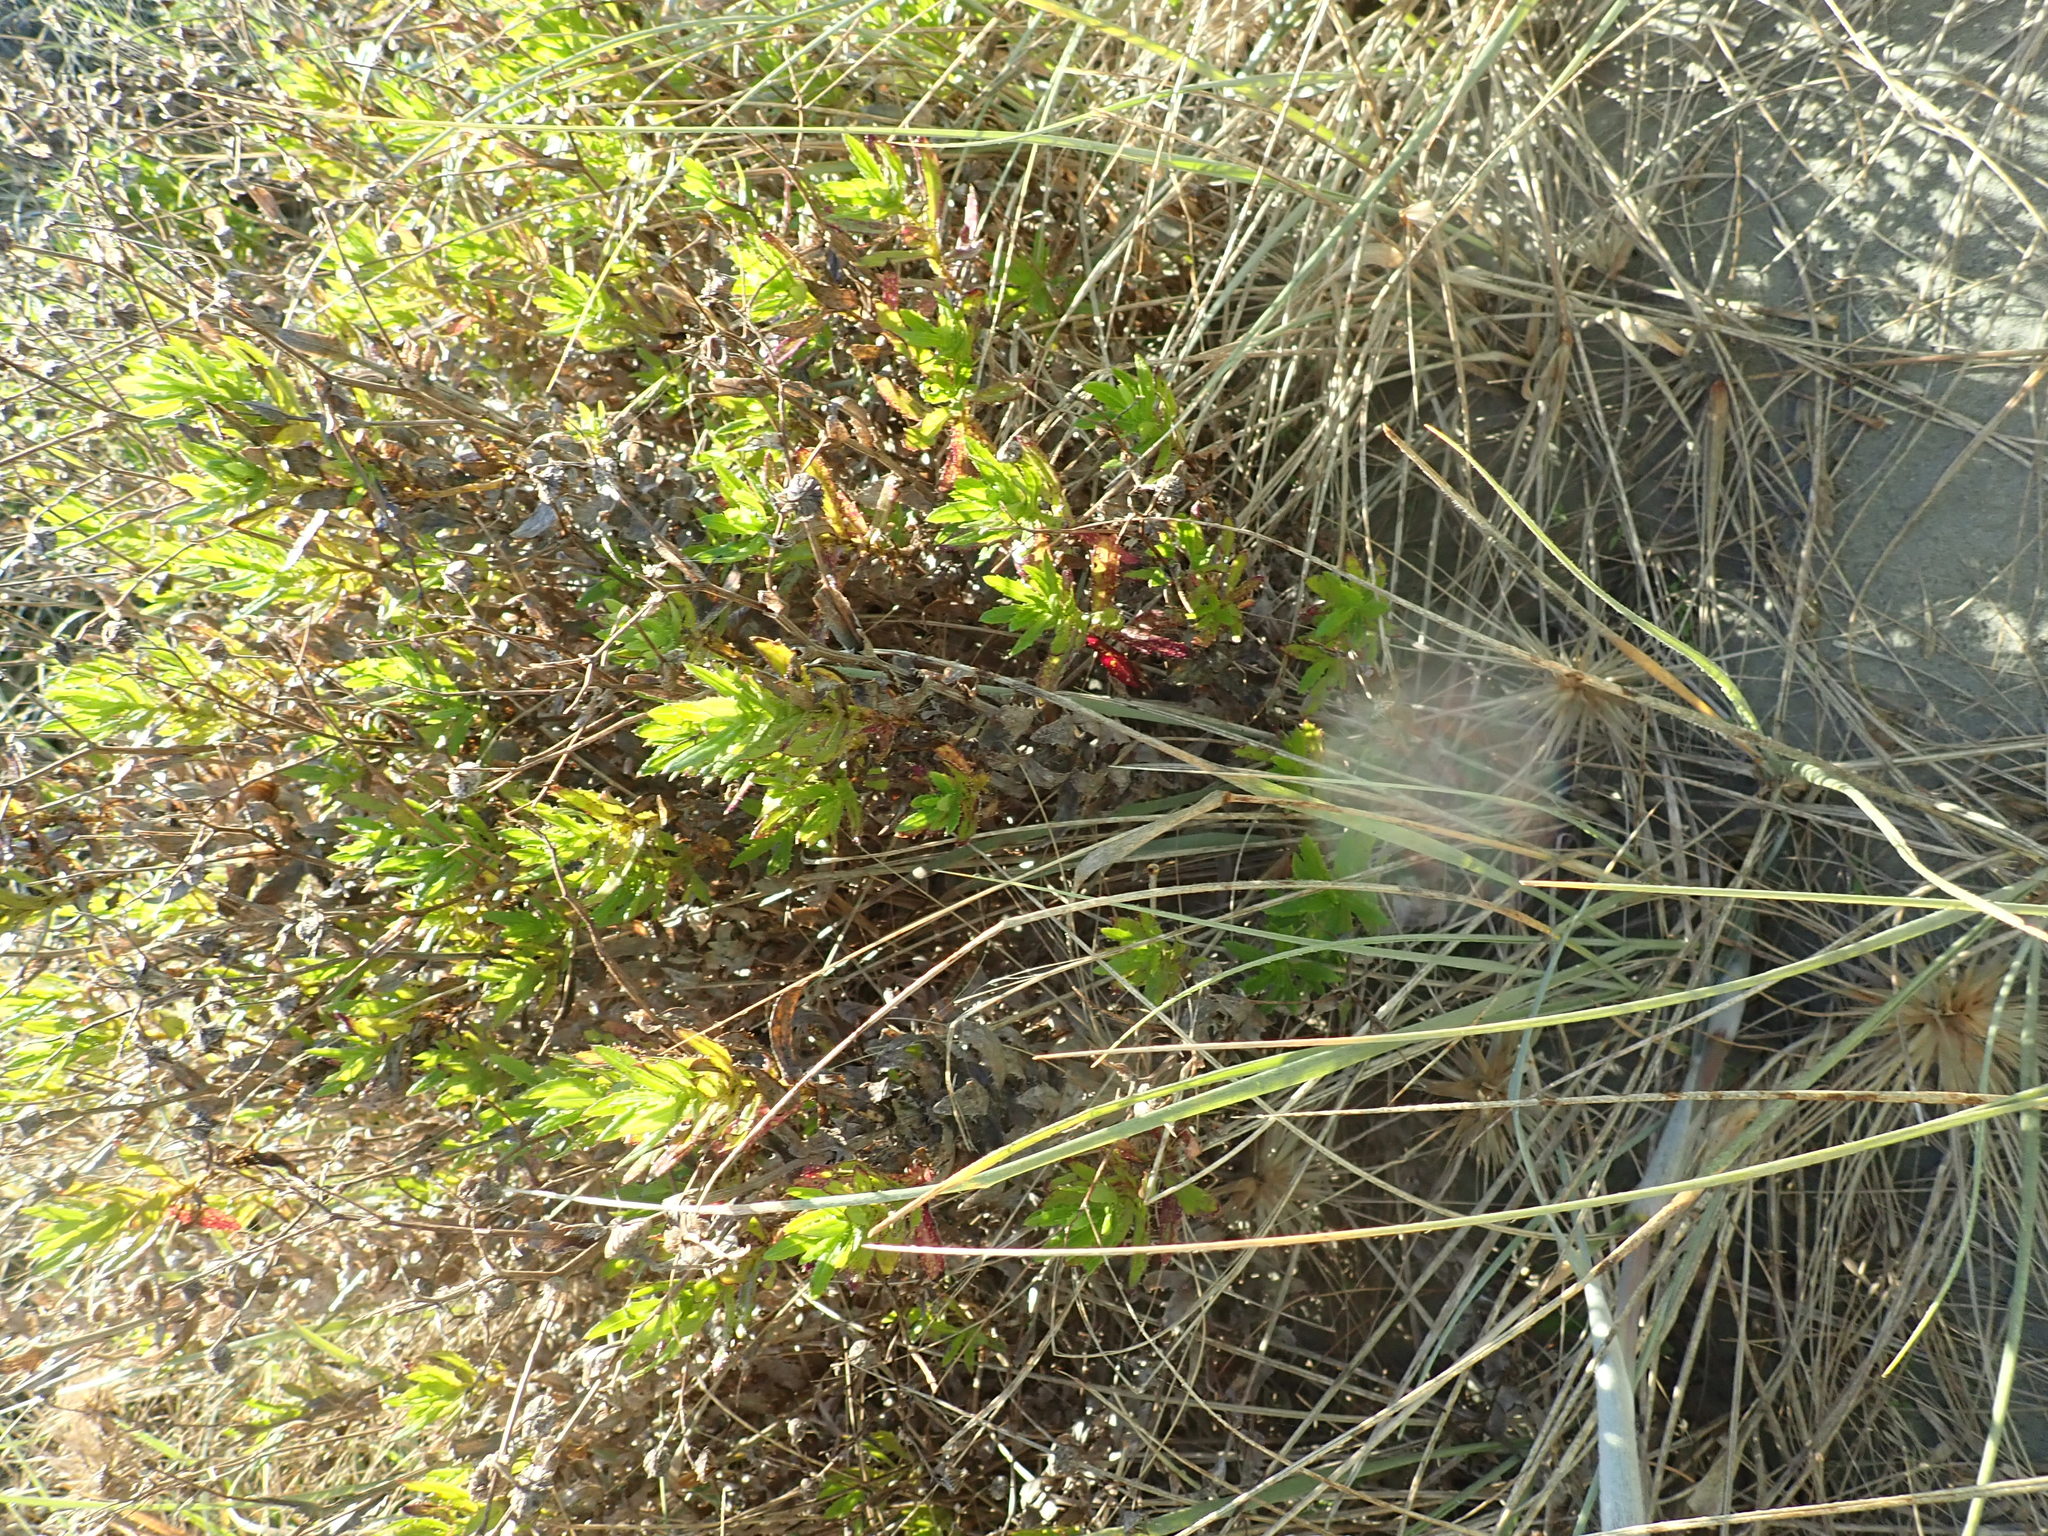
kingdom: Plantae
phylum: Tracheophyta
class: Magnoliopsida
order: Asterales
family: Asteraceae
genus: Senecio
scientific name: Senecio glastifolius
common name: Woad-leaved ragwort
